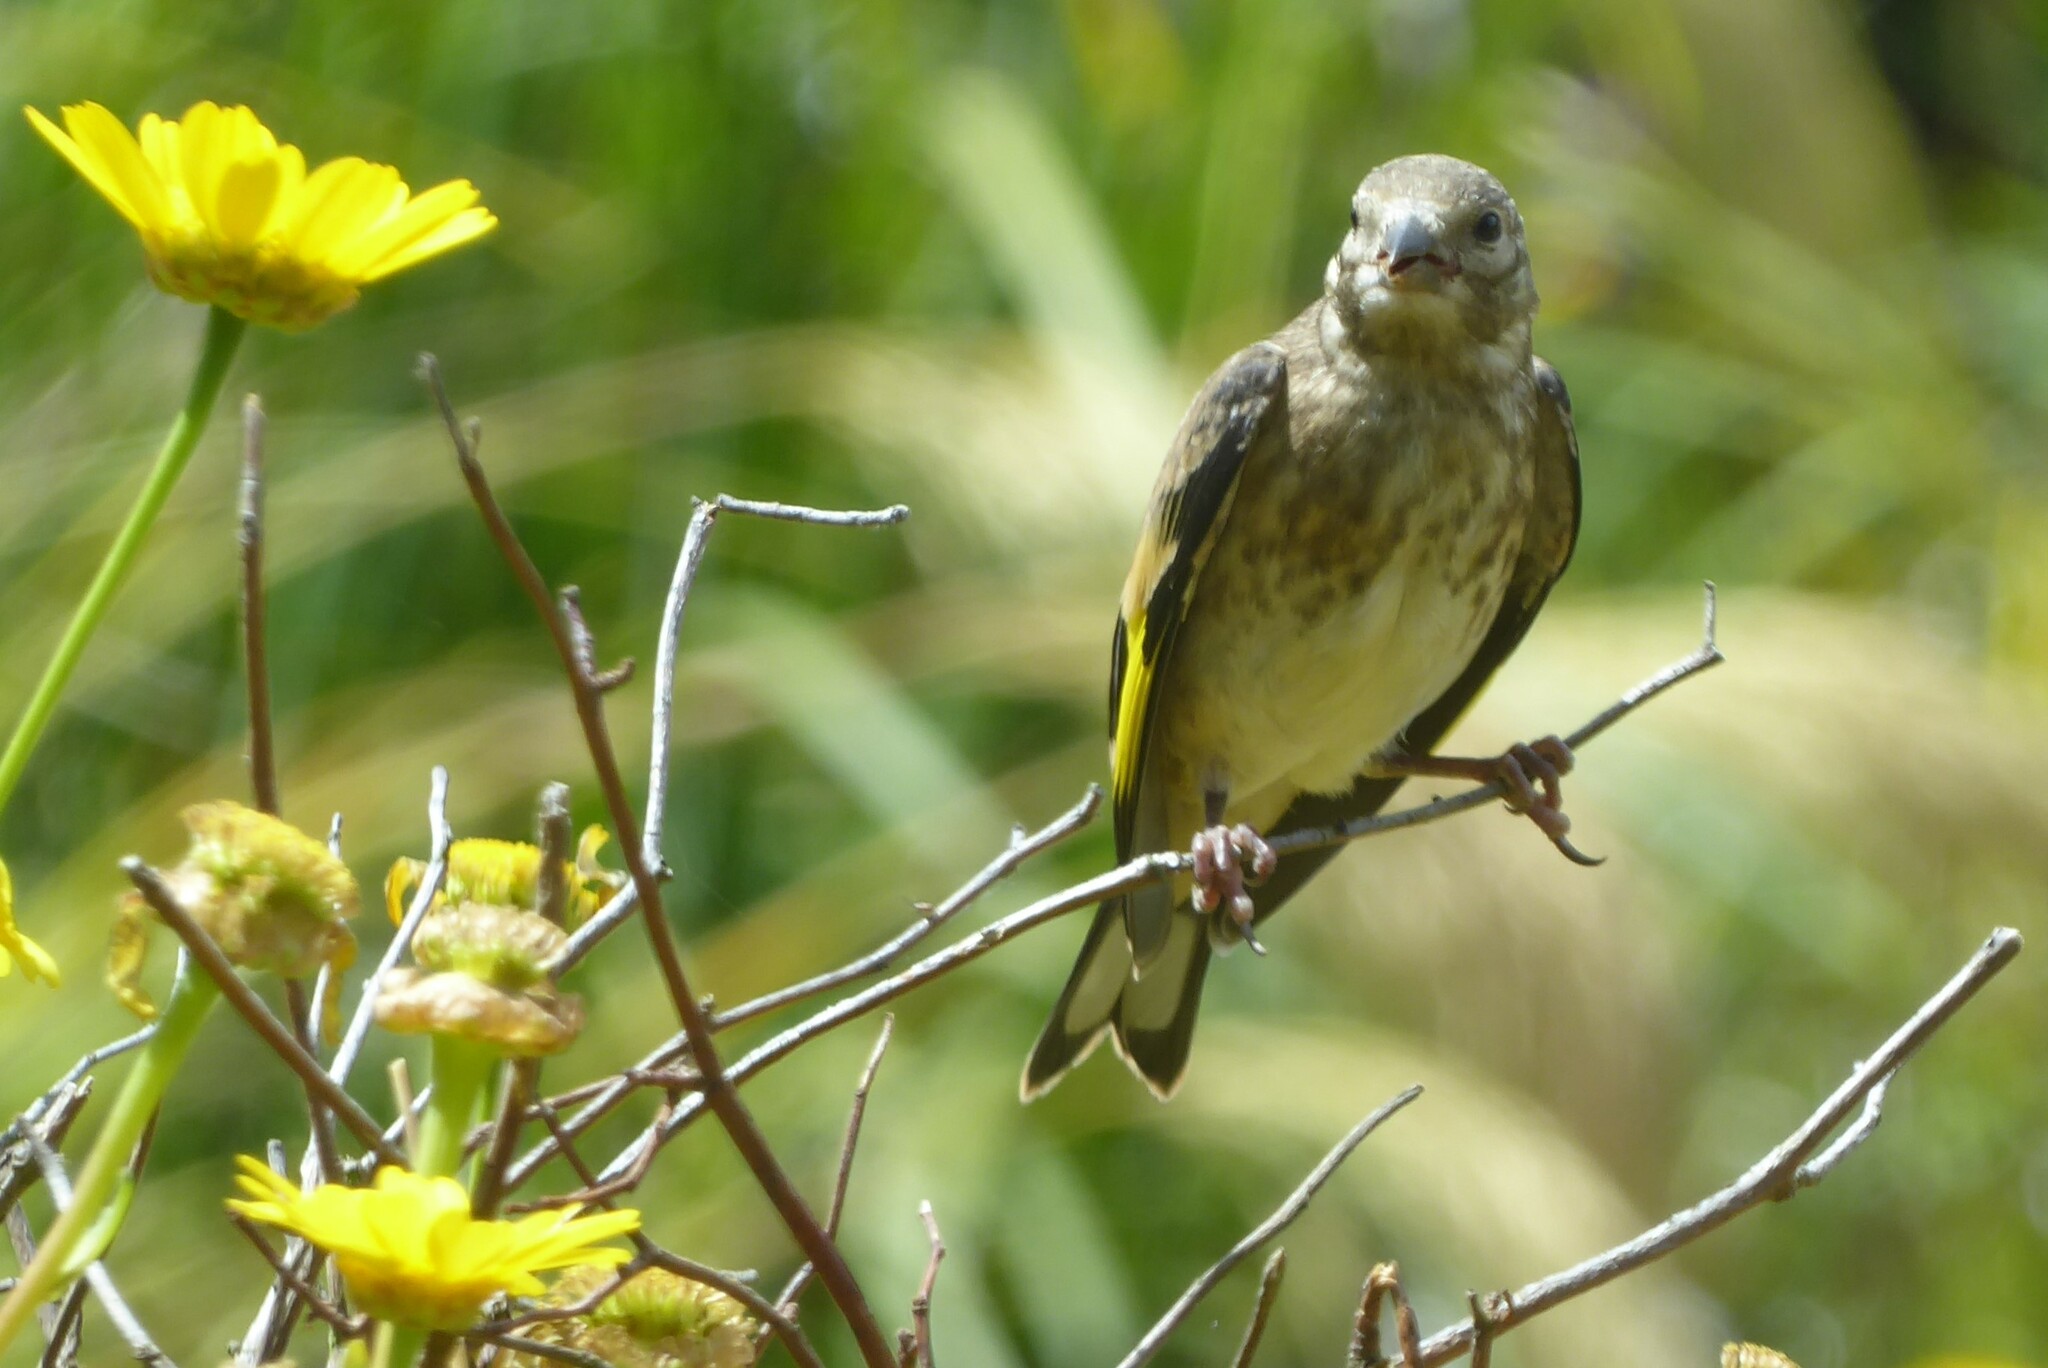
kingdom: Animalia
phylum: Chordata
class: Aves
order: Passeriformes
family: Fringillidae
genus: Carduelis
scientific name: Carduelis carduelis
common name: European goldfinch
